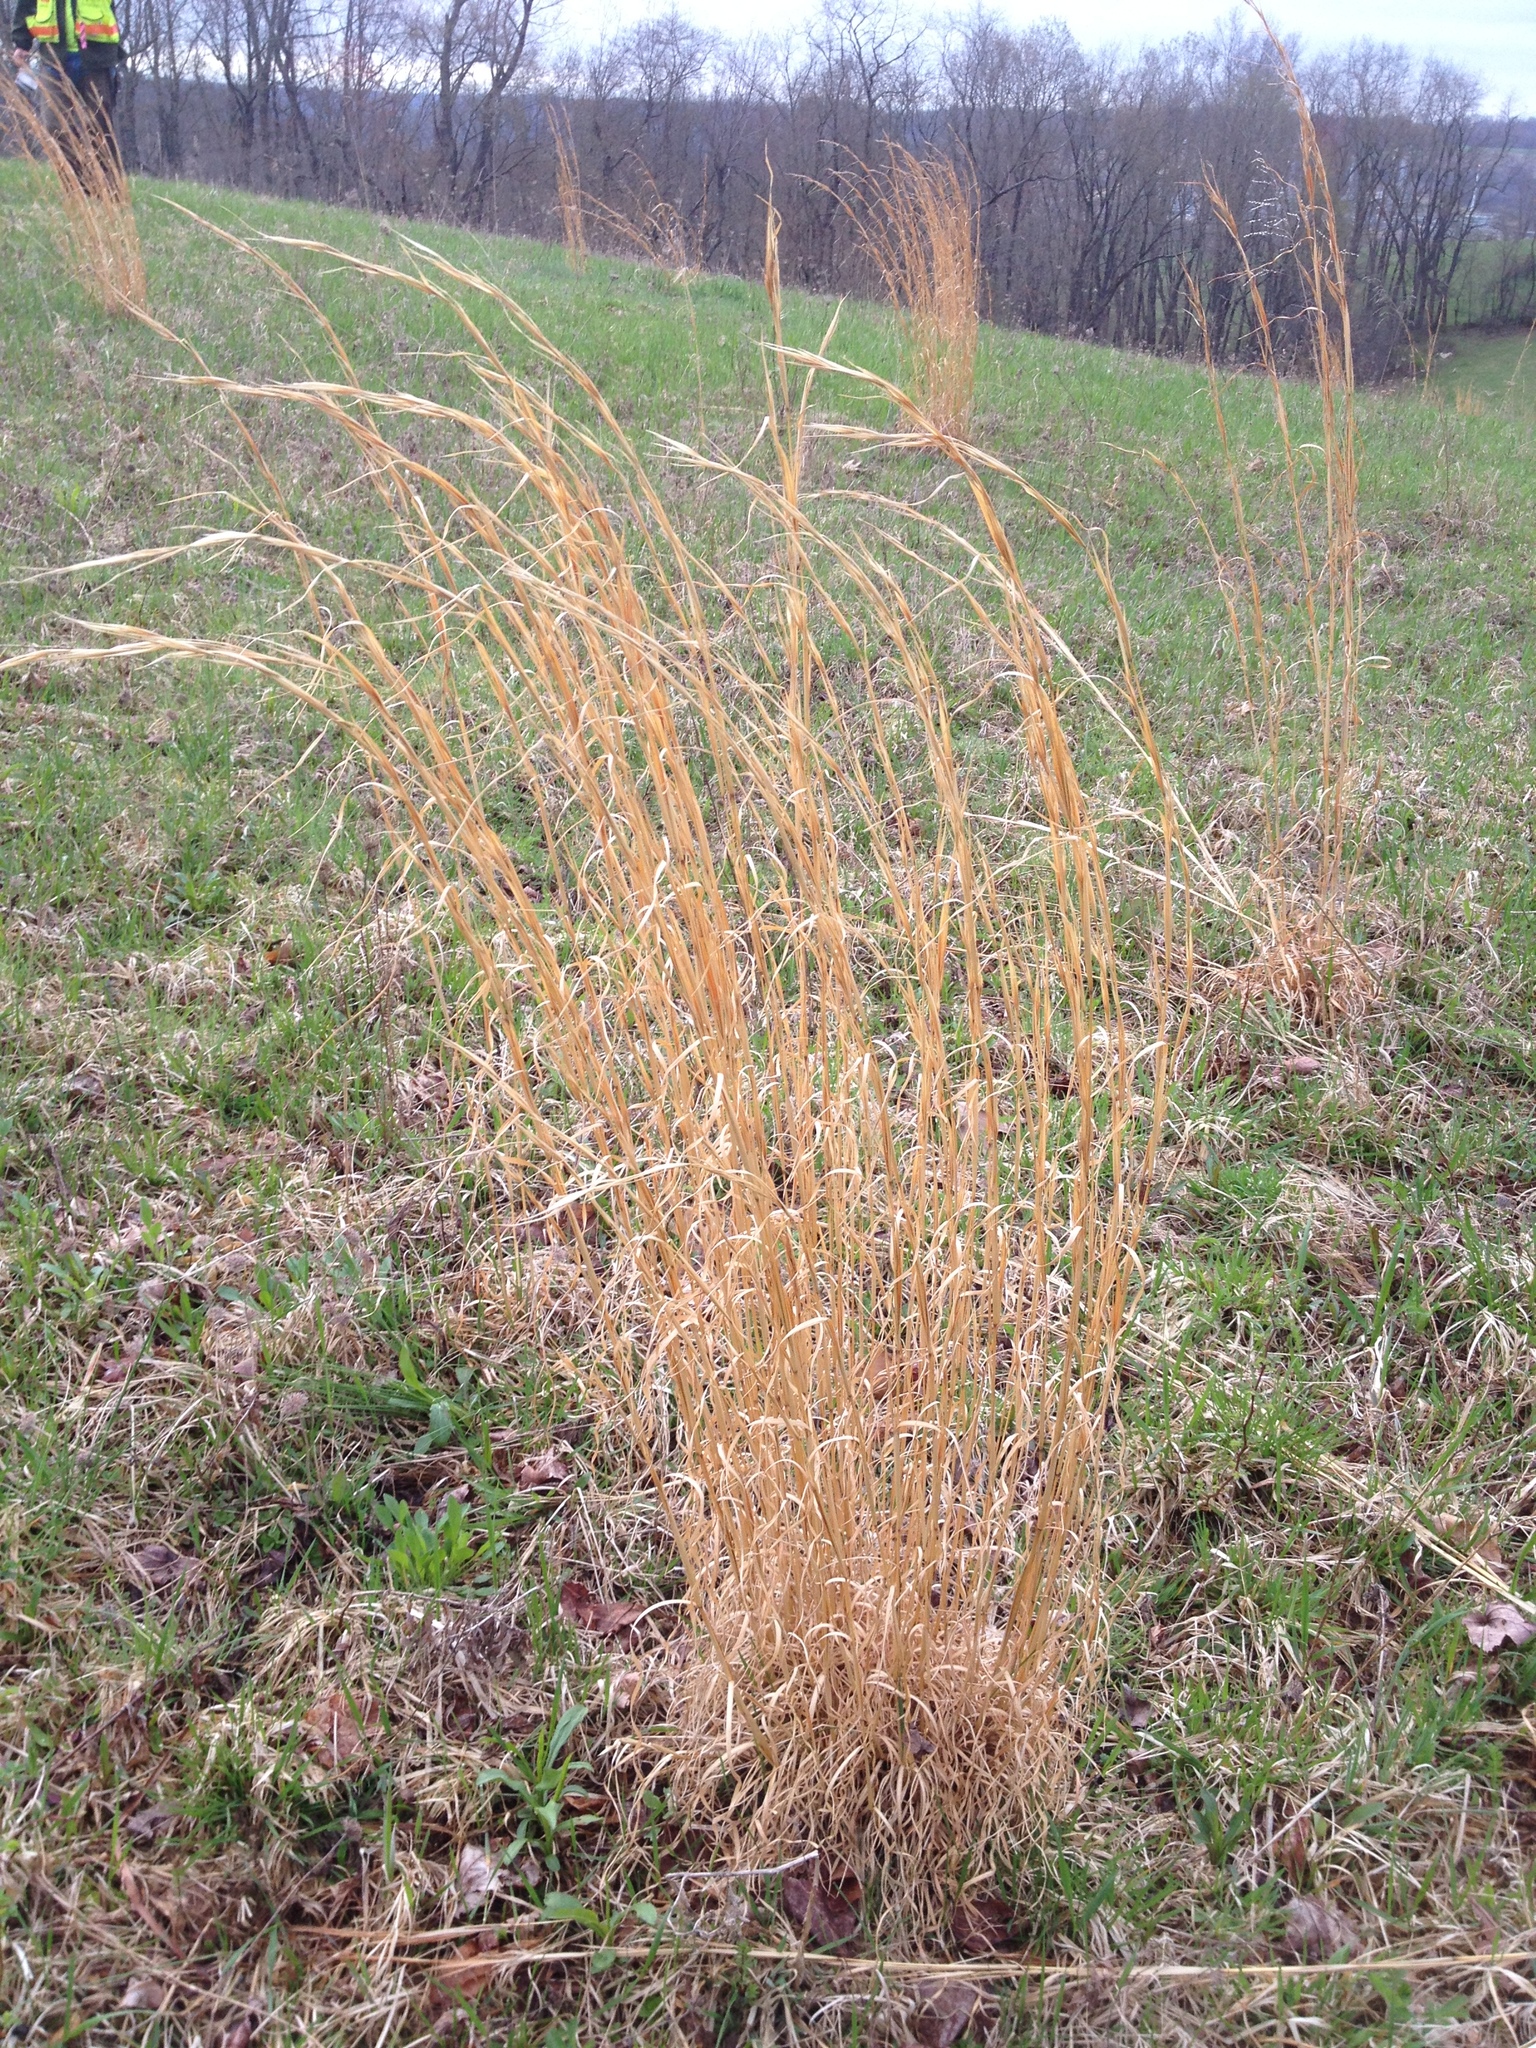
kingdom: Plantae
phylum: Tracheophyta
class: Liliopsida
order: Poales
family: Poaceae
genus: Andropogon
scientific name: Andropogon virginicus
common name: Broomsedge bluestem
